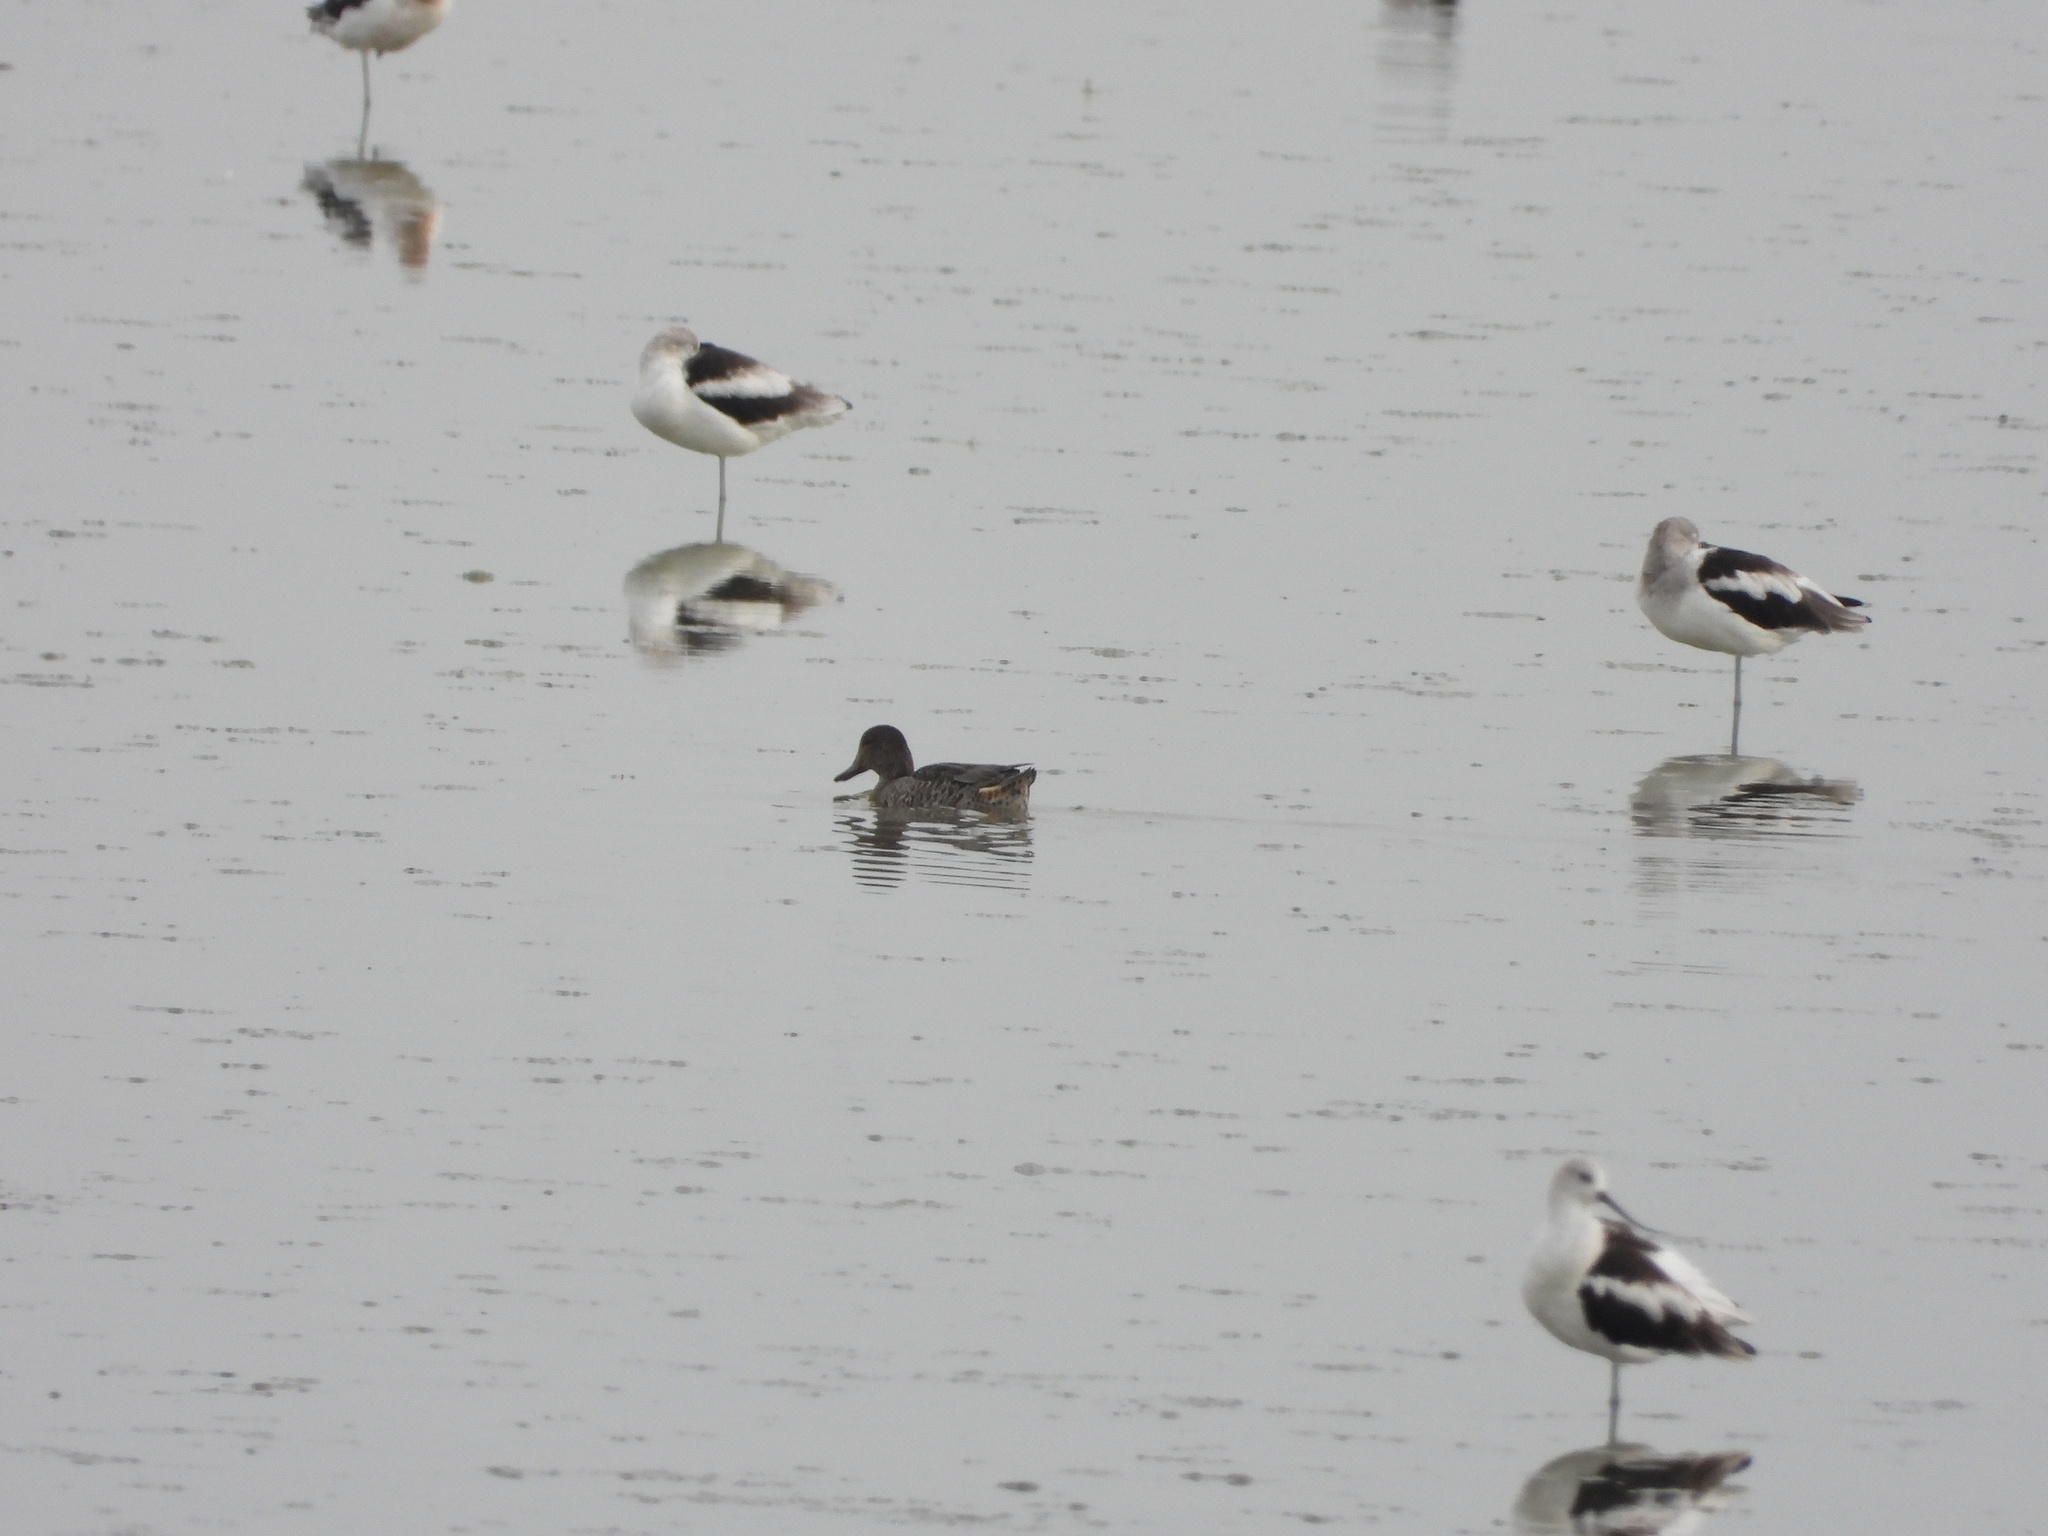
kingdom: Animalia
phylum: Chordata
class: Aves
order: Charadriiformes
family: Recurvirostridae
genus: Recurvirostra
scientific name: Recurvirostra americana
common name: American avocet
